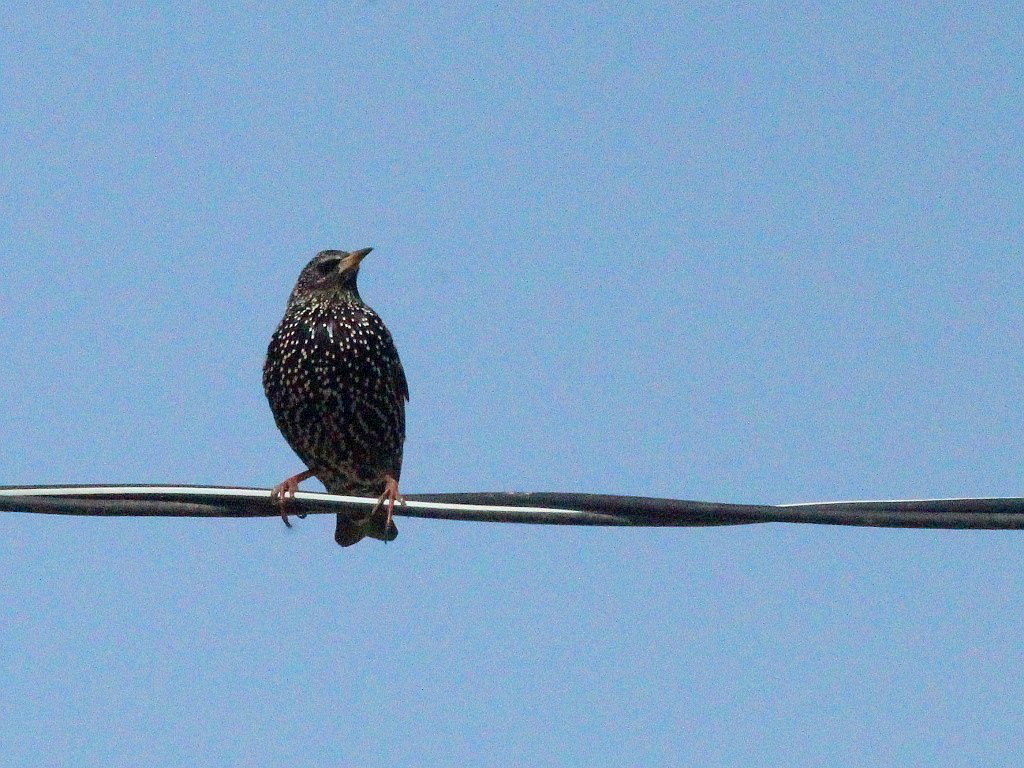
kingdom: Animalia
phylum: Chordata
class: Aves
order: Passeriformes
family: Sturnidae
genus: Sturnus
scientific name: Sturnus vulgaris
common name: Common starling
